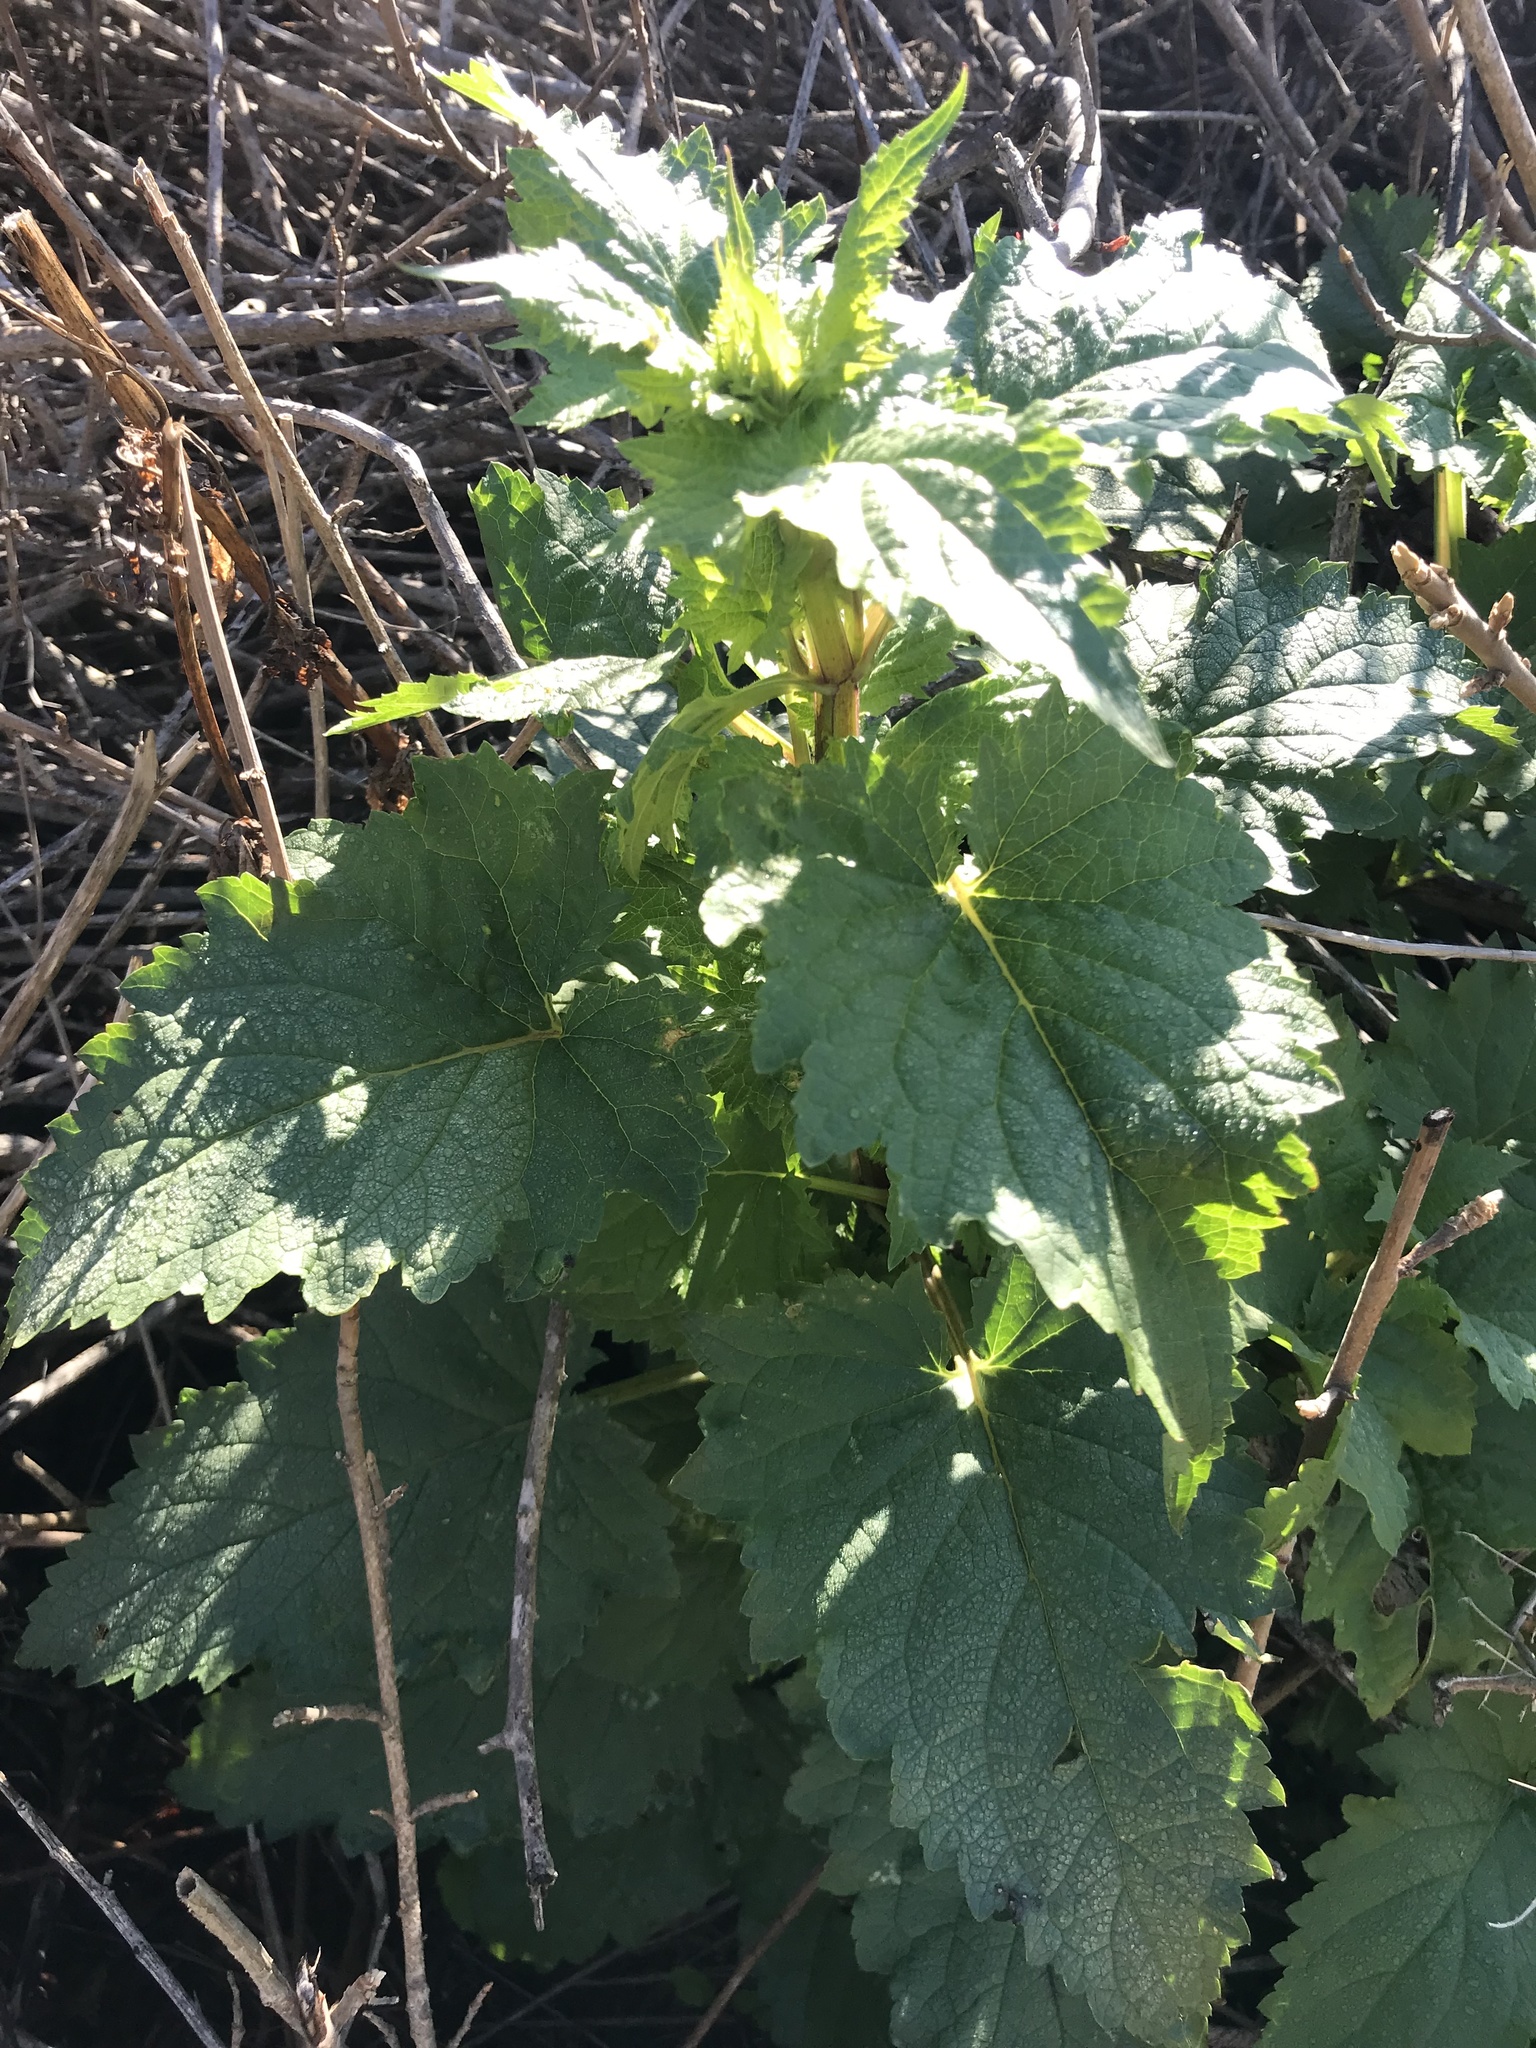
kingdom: Plantae
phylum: Tracheophyta
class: Magnoliopsida
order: Lamiales
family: Scrophulariaceae
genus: Scrophularia
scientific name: Scrophularia californica
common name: California figwort
